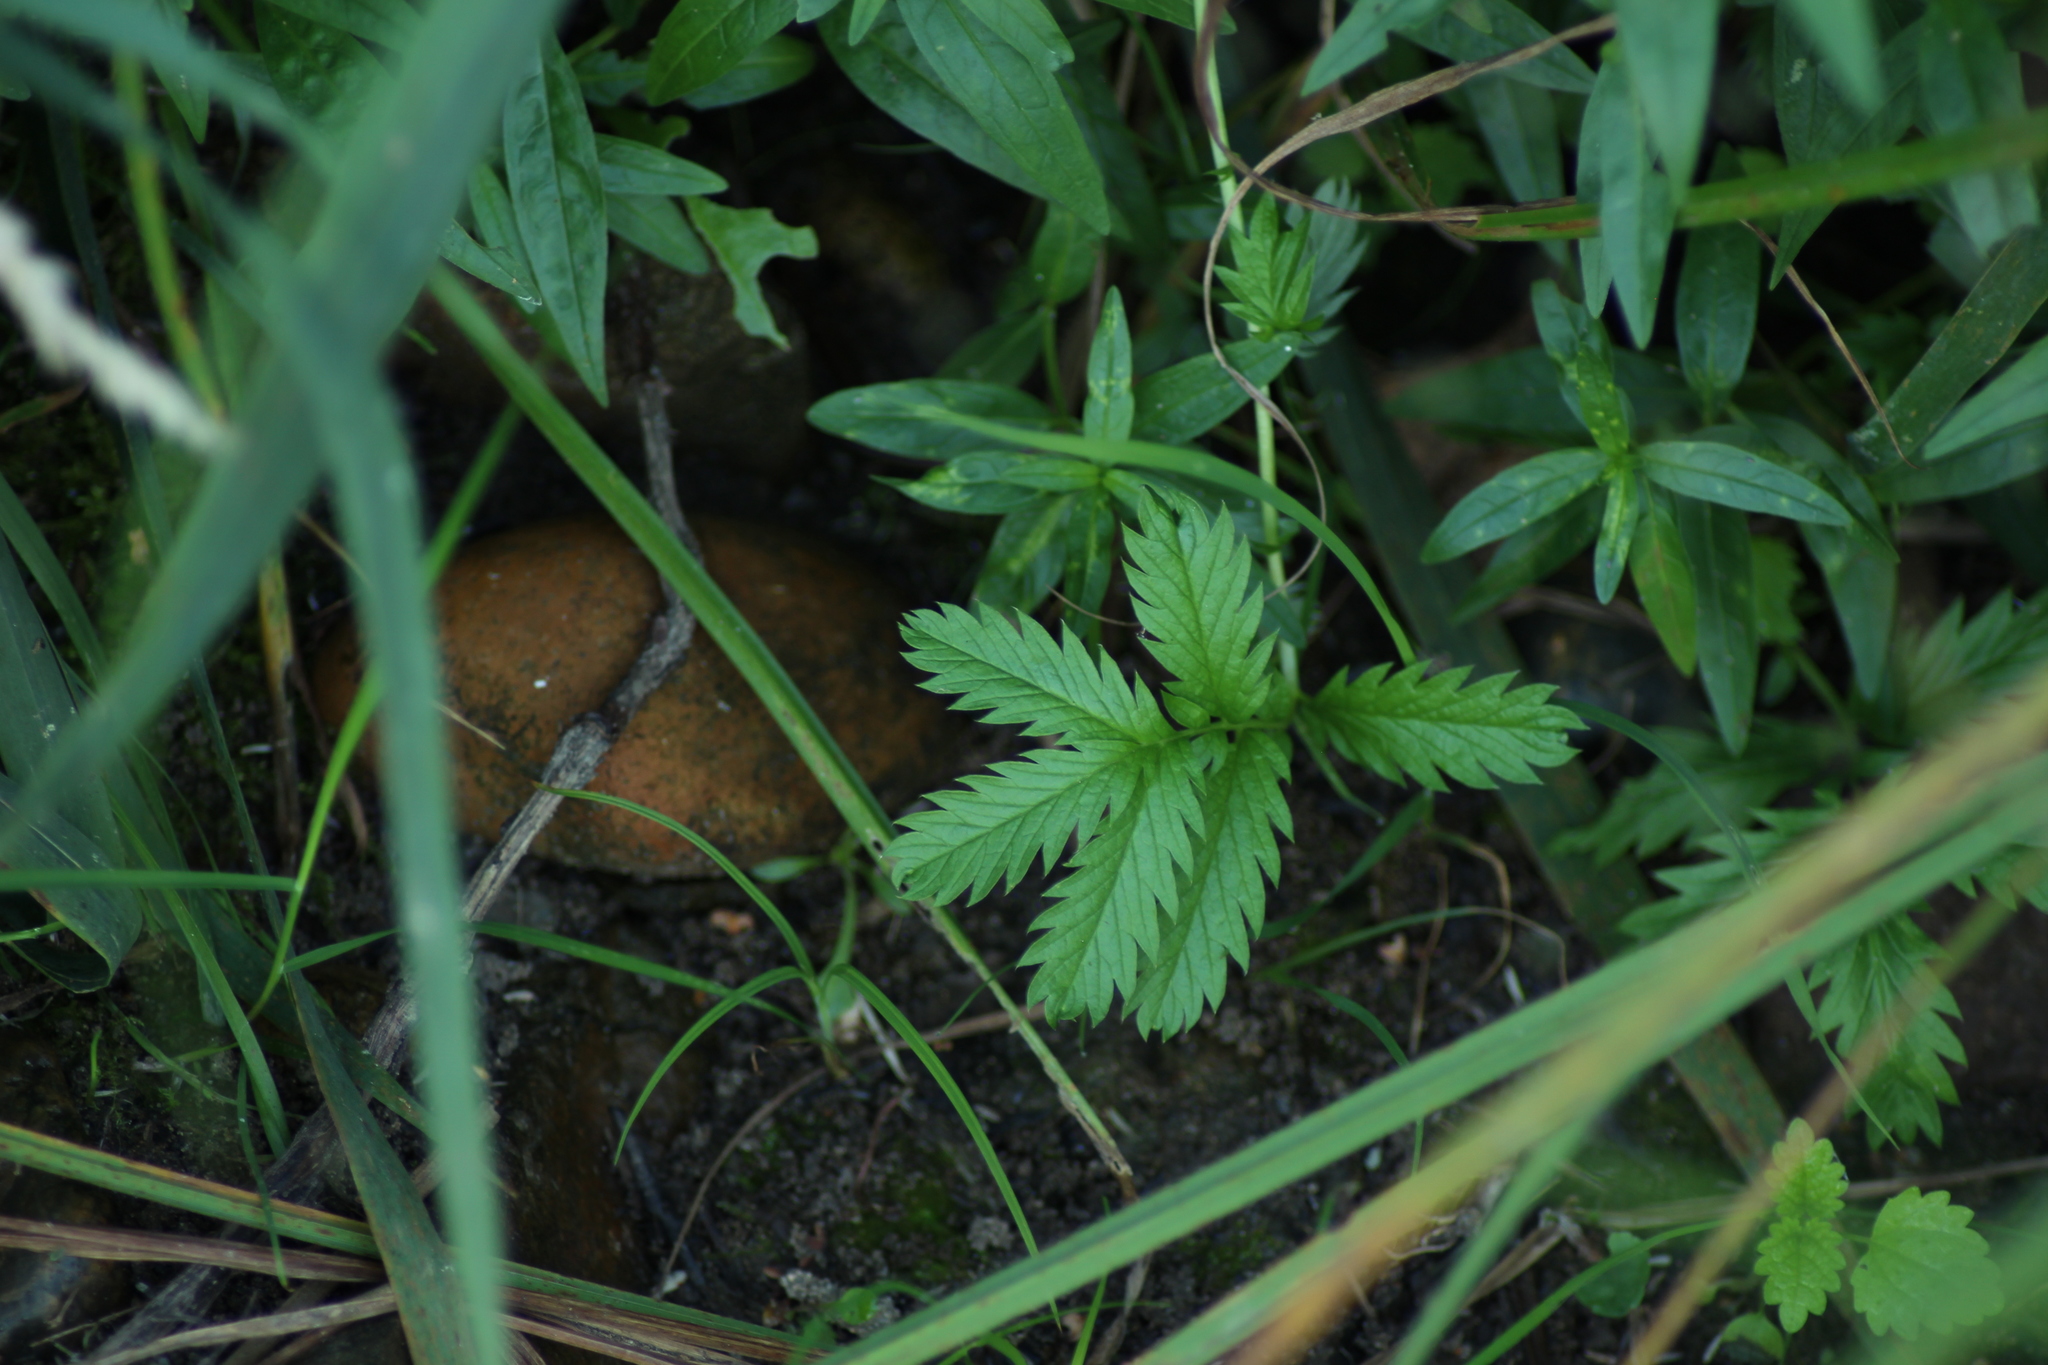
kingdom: Plantae
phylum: Tracheophyta
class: Magnoliopsida
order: Rosales
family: Rosaceae
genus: Argentina
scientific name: Argentina anserina
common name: Common silverweed
